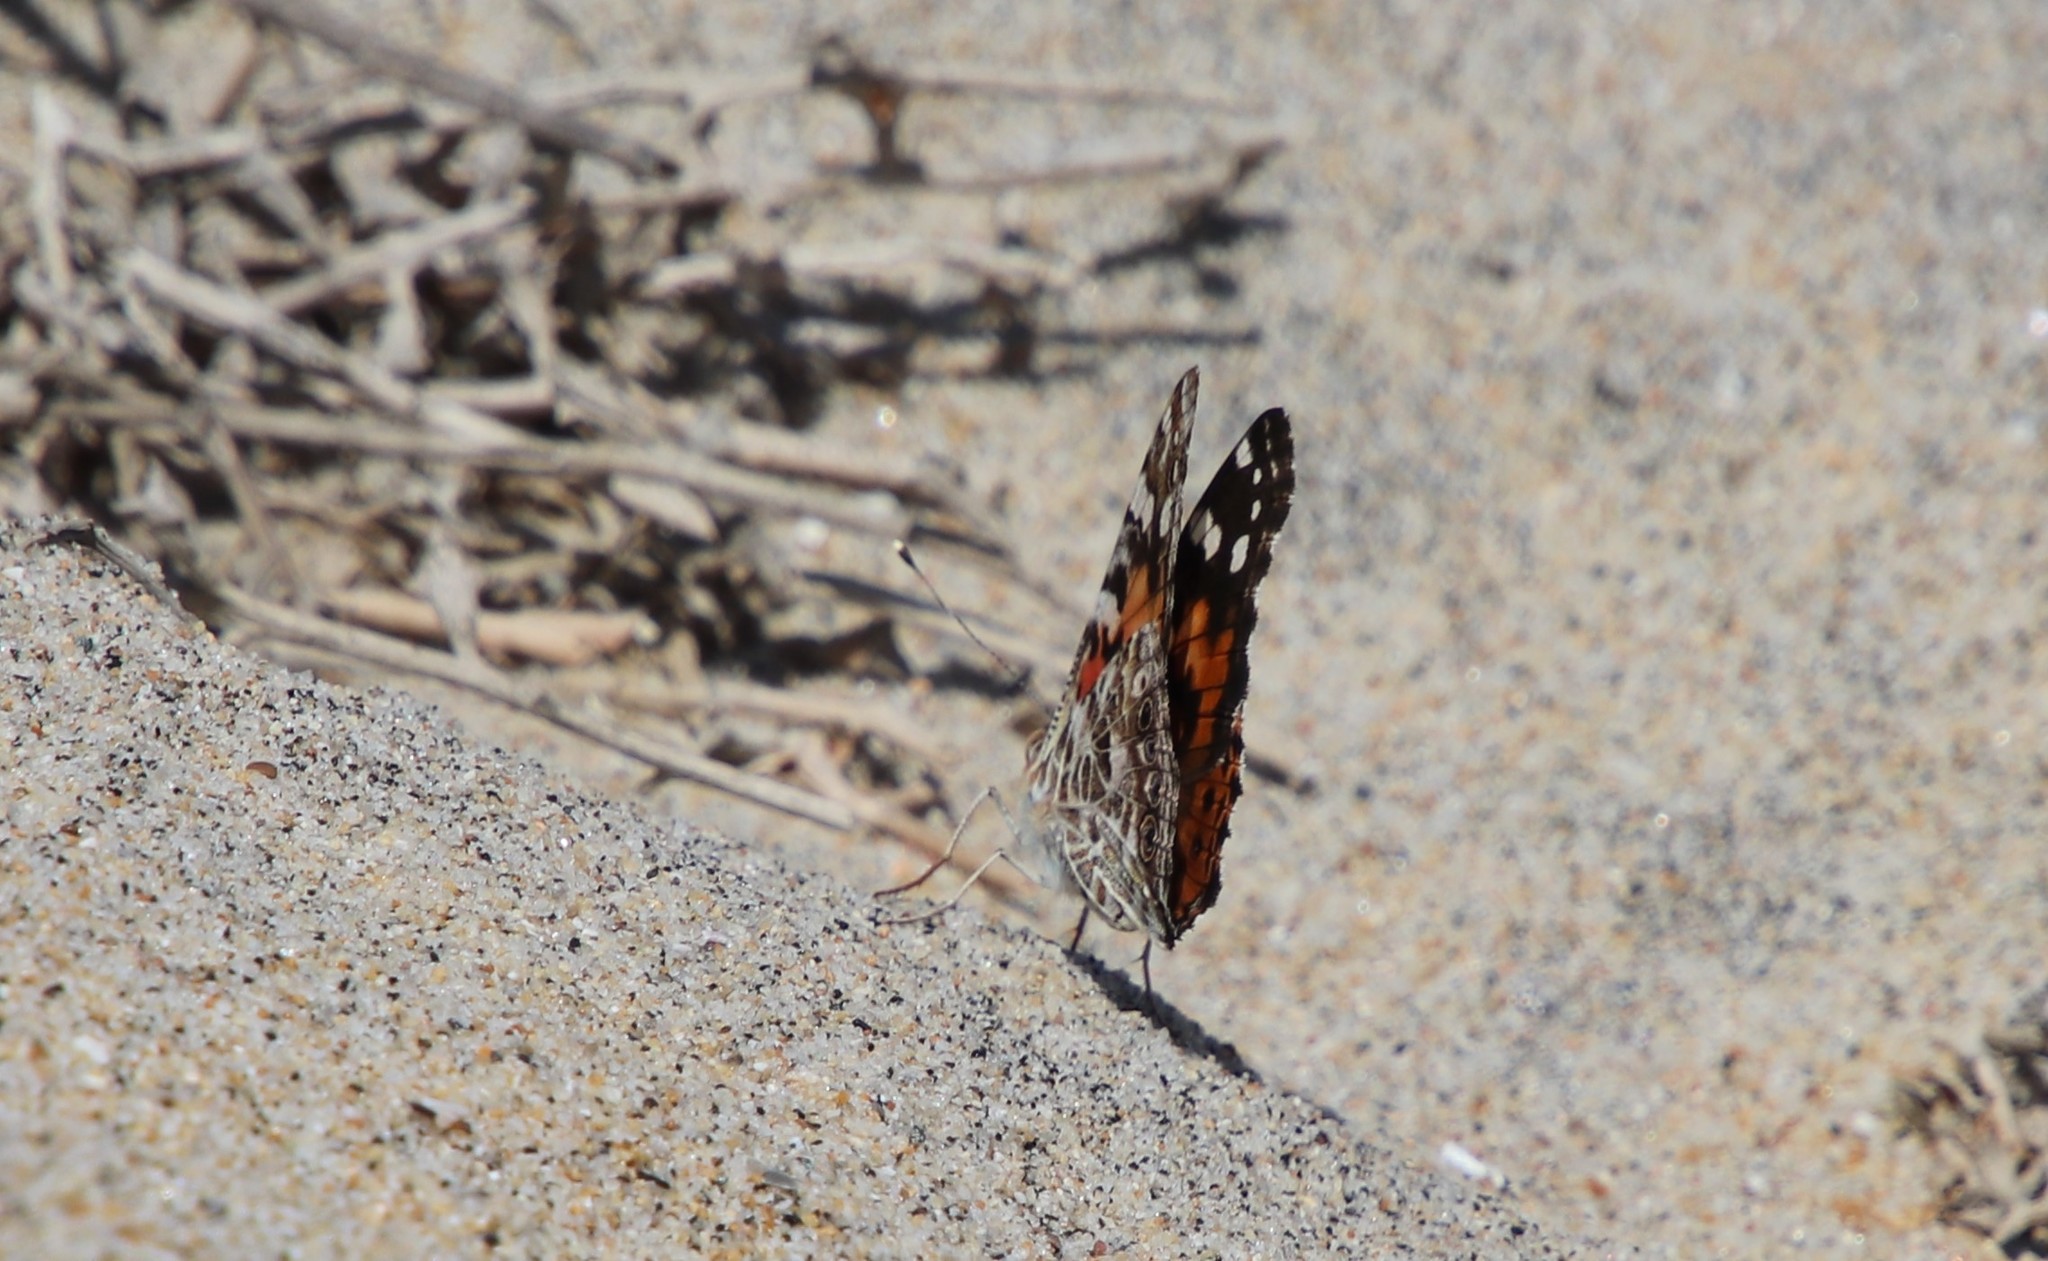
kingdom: Animalia
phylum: Arthropoda
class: Insecta
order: Lepidoptera
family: Nymphalidae
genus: Vanessa
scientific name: Vanessa cardui
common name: Painted lady
